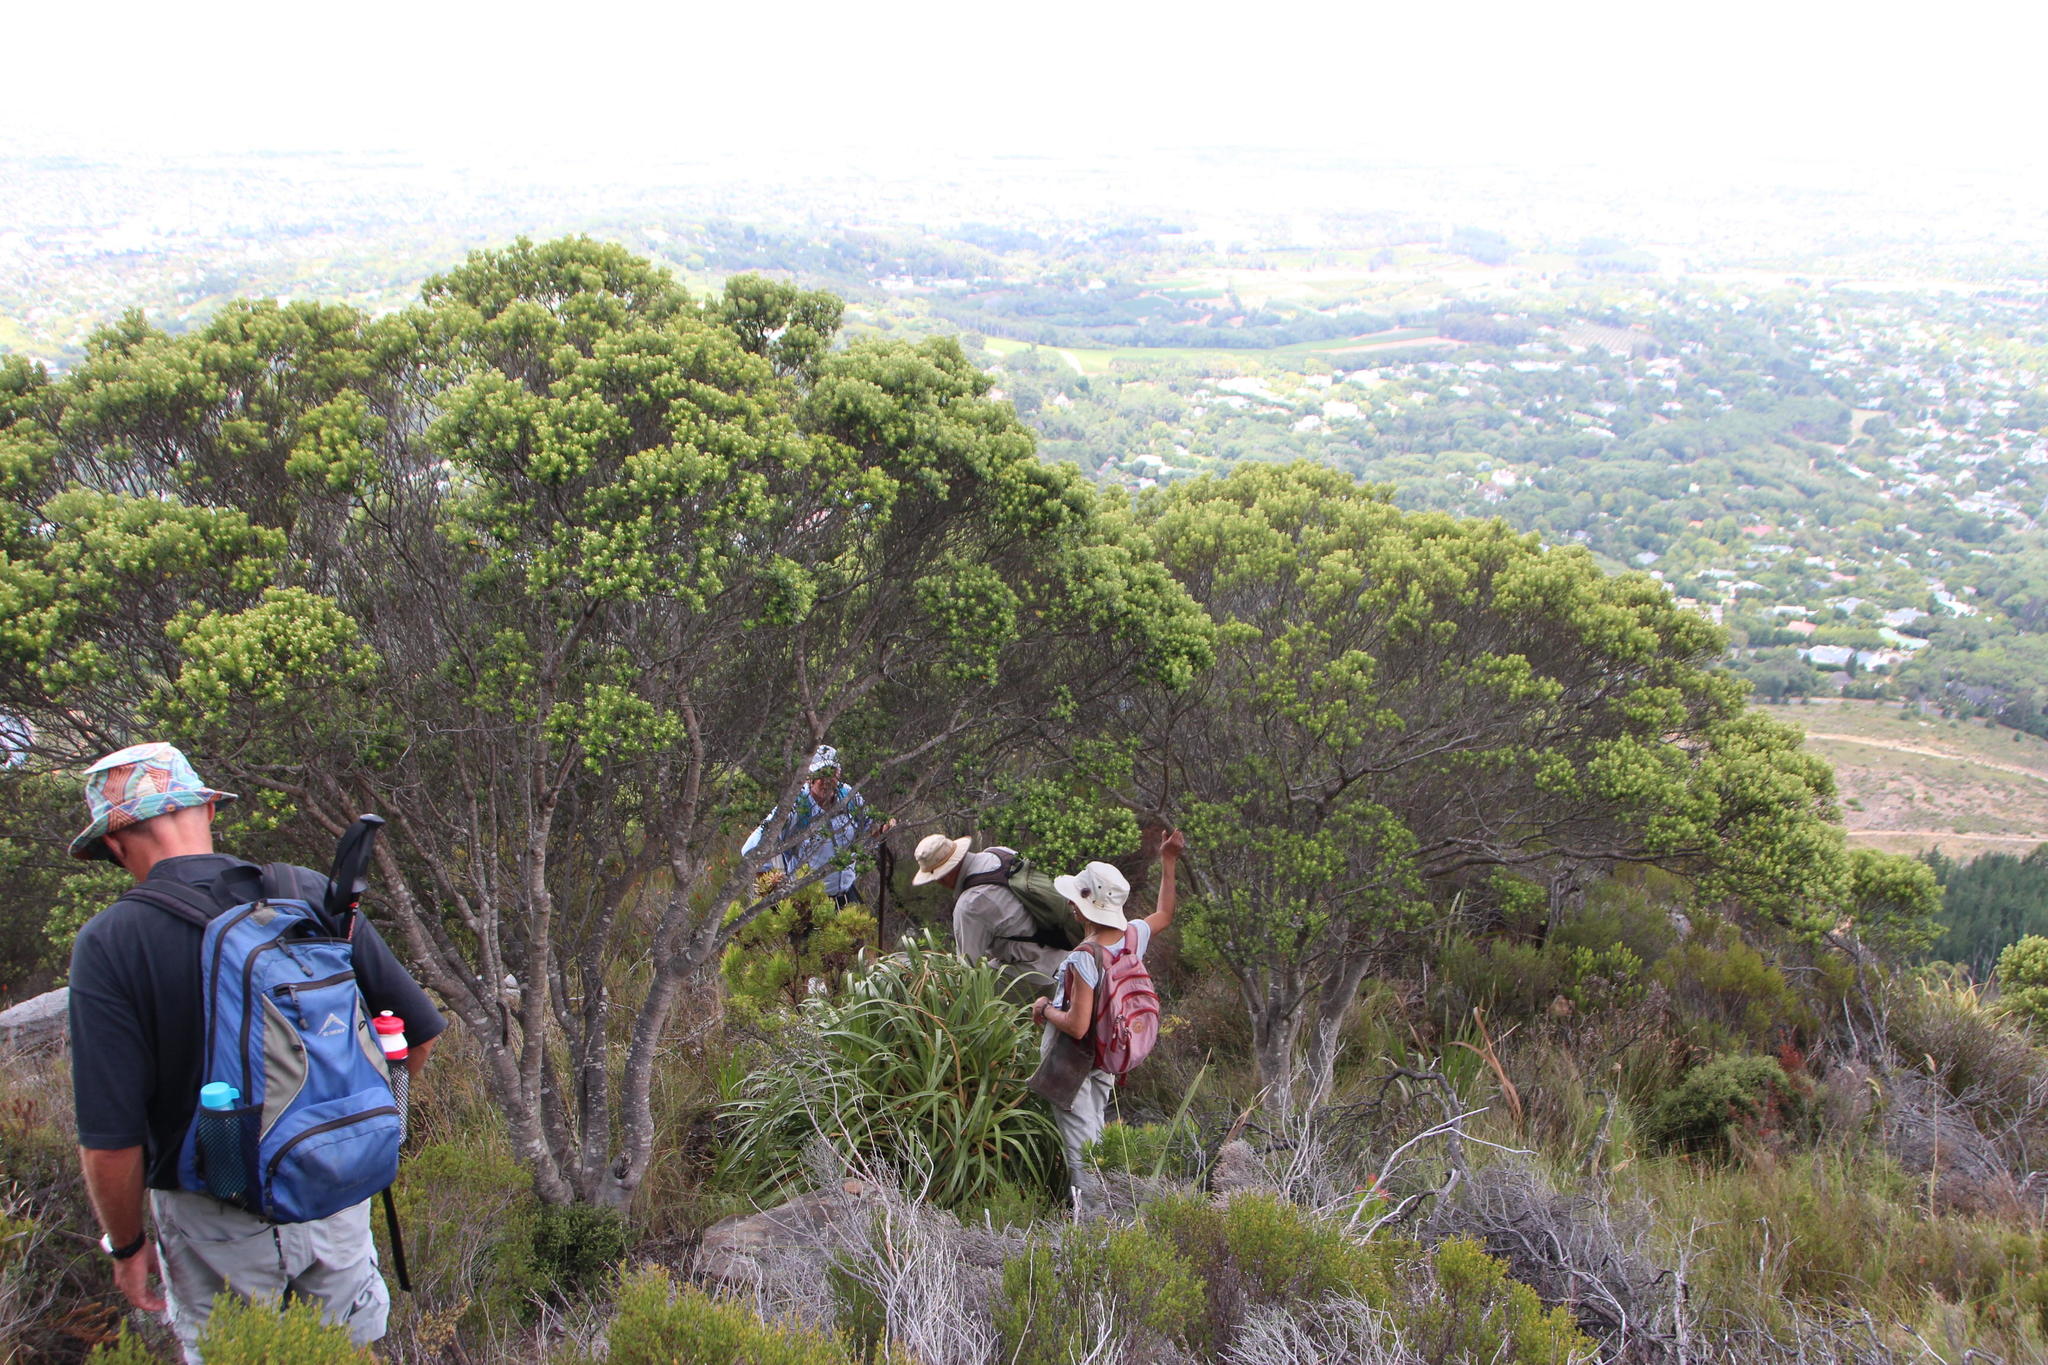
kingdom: Plantae
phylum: Tracheophyta
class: Magnoliopsida
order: Rosales
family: Rhamnaceae
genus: Phylica
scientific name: Phylica buxifolia
